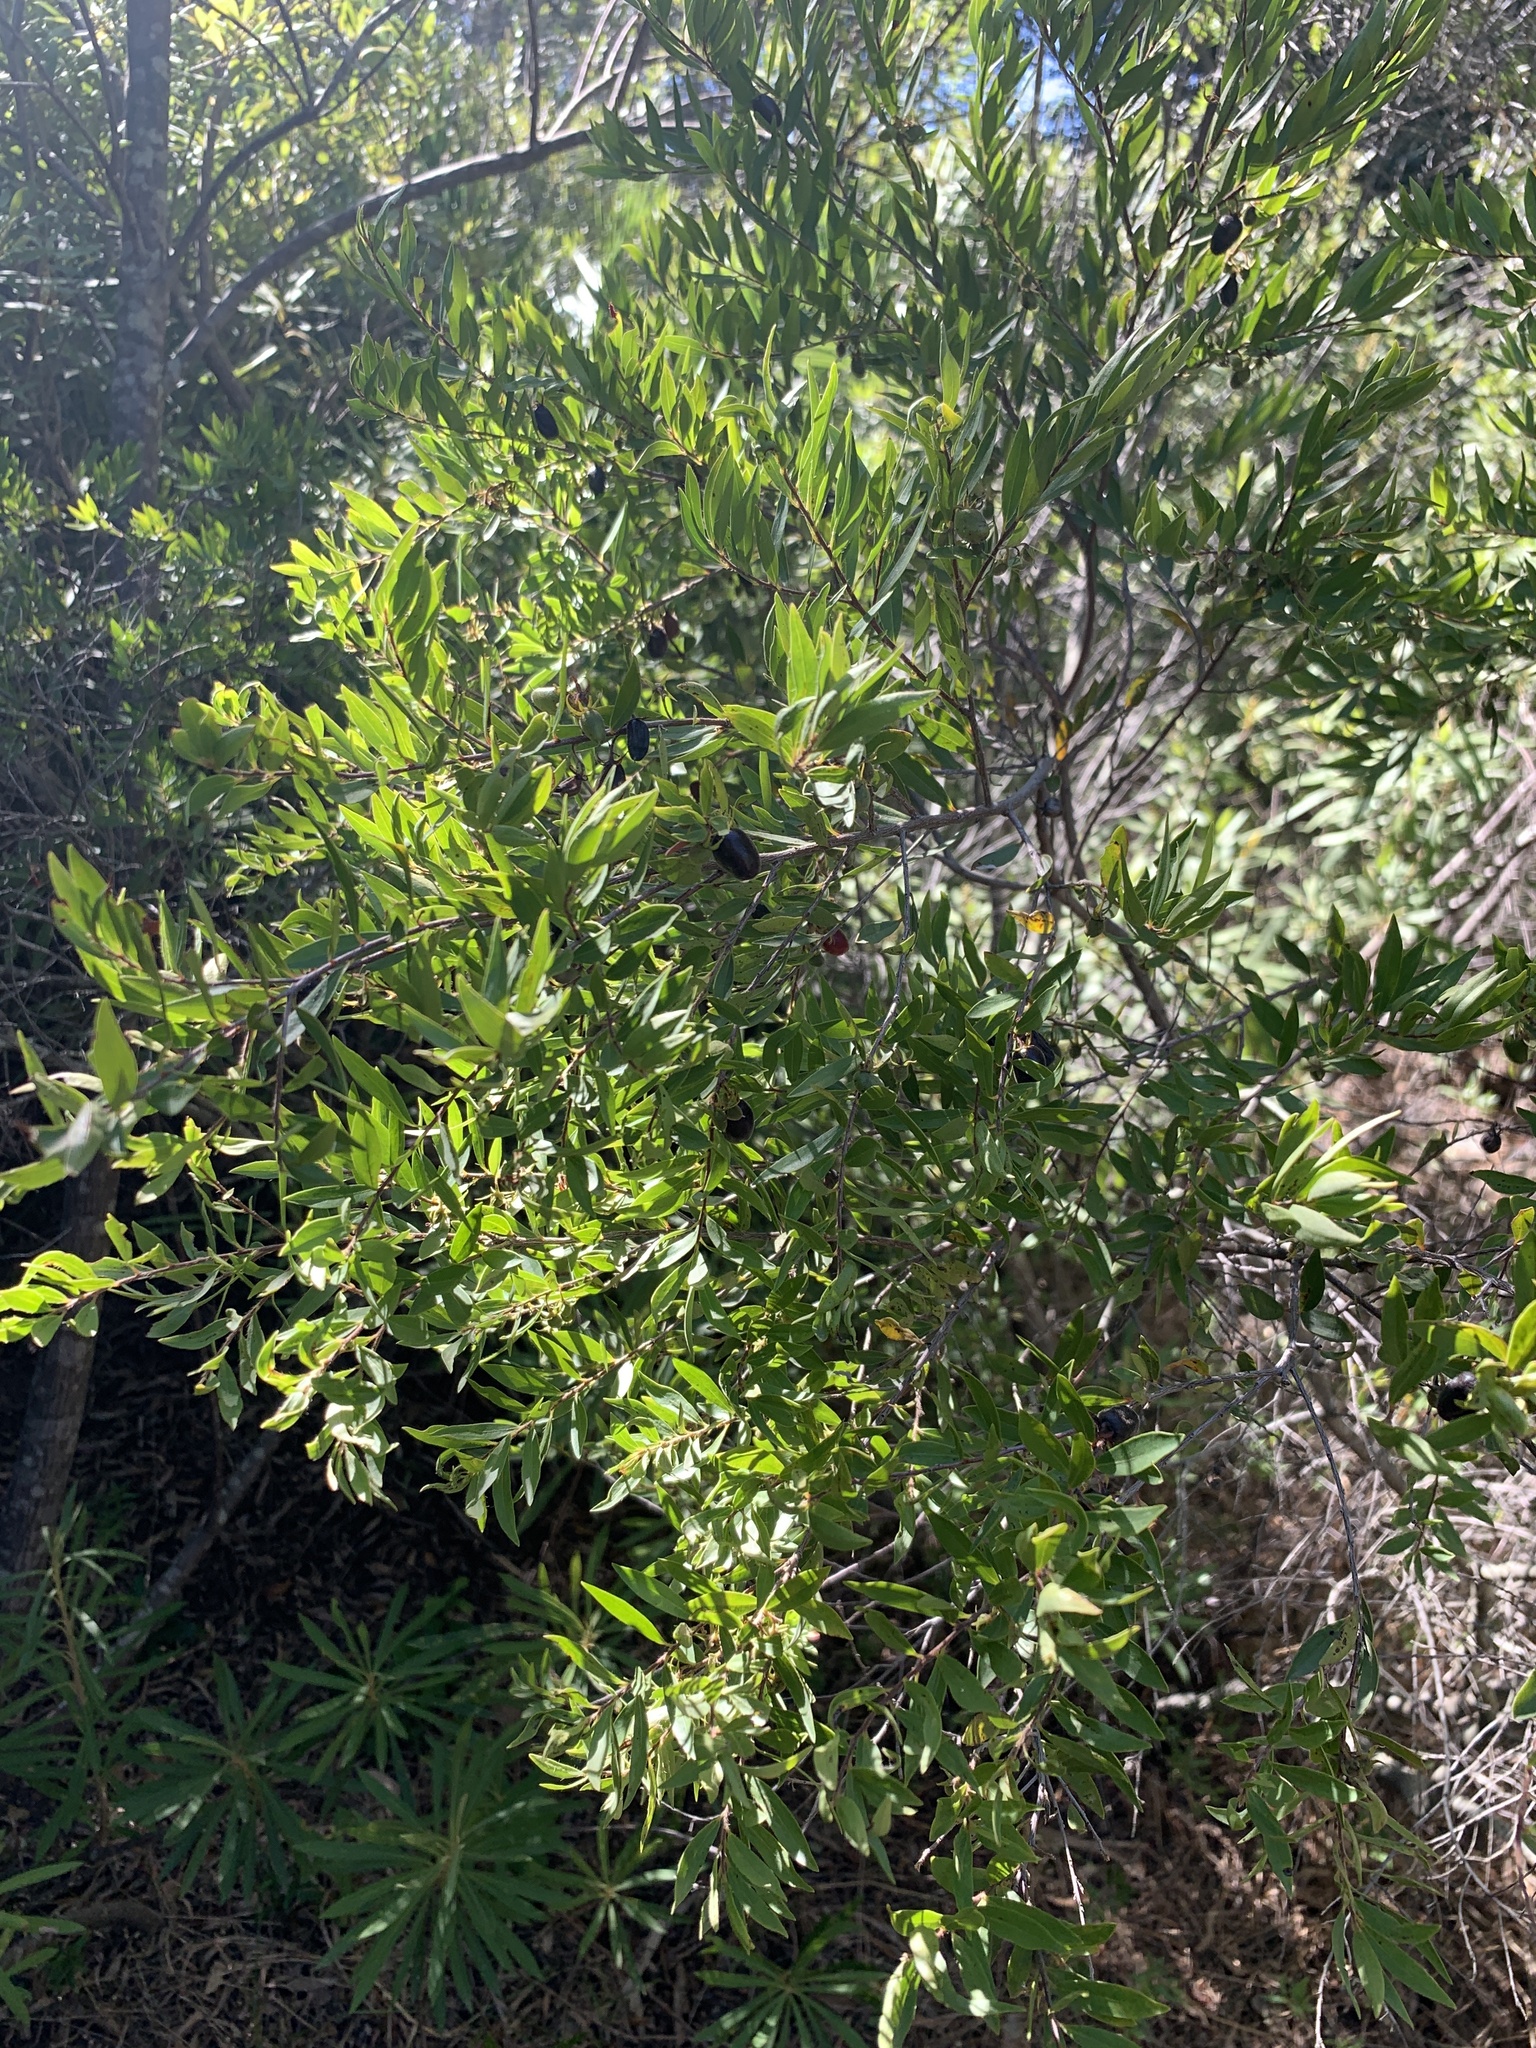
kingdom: Plantae
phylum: Tracheophyta
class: Magnoliopsida
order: Ericales
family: Ebenaceae
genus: Diospyros
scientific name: Diospyros glabra
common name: Fynbos star apple
